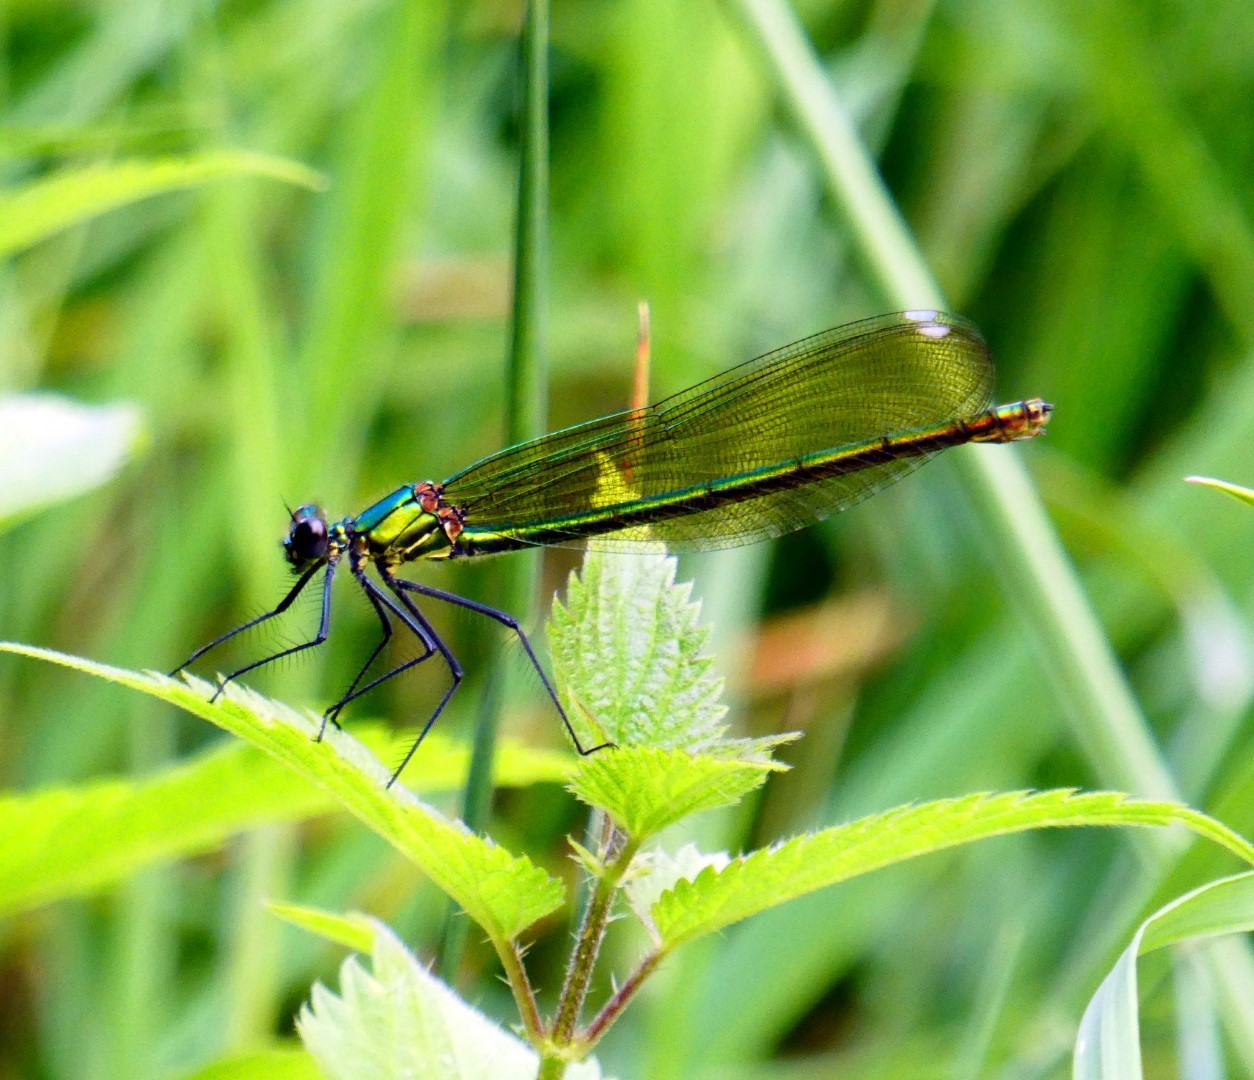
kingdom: Animalia
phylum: Arthropoda
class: Insecta
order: Odonata
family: Calopterygidae
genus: Calopteryx
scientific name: Calopteryx splendens
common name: Banded demoiselle
